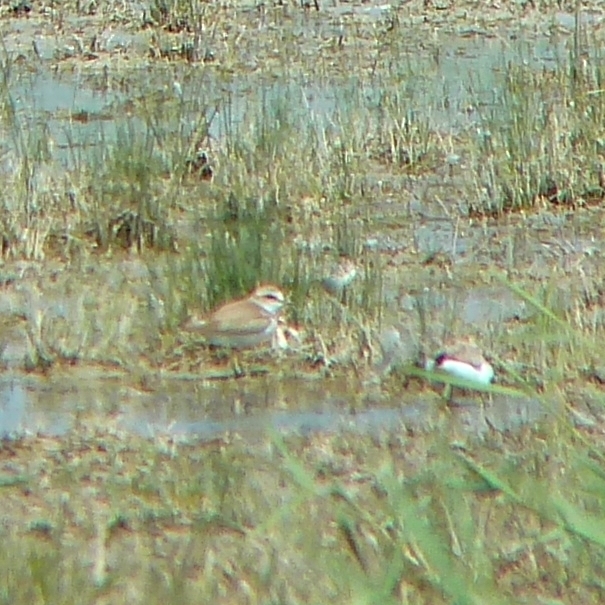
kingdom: Animalia
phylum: Chordata
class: Aves
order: Charadriiformes
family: Charadriidae
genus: Charadrius
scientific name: Charadrius alexandrinus
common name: Kentish plover
